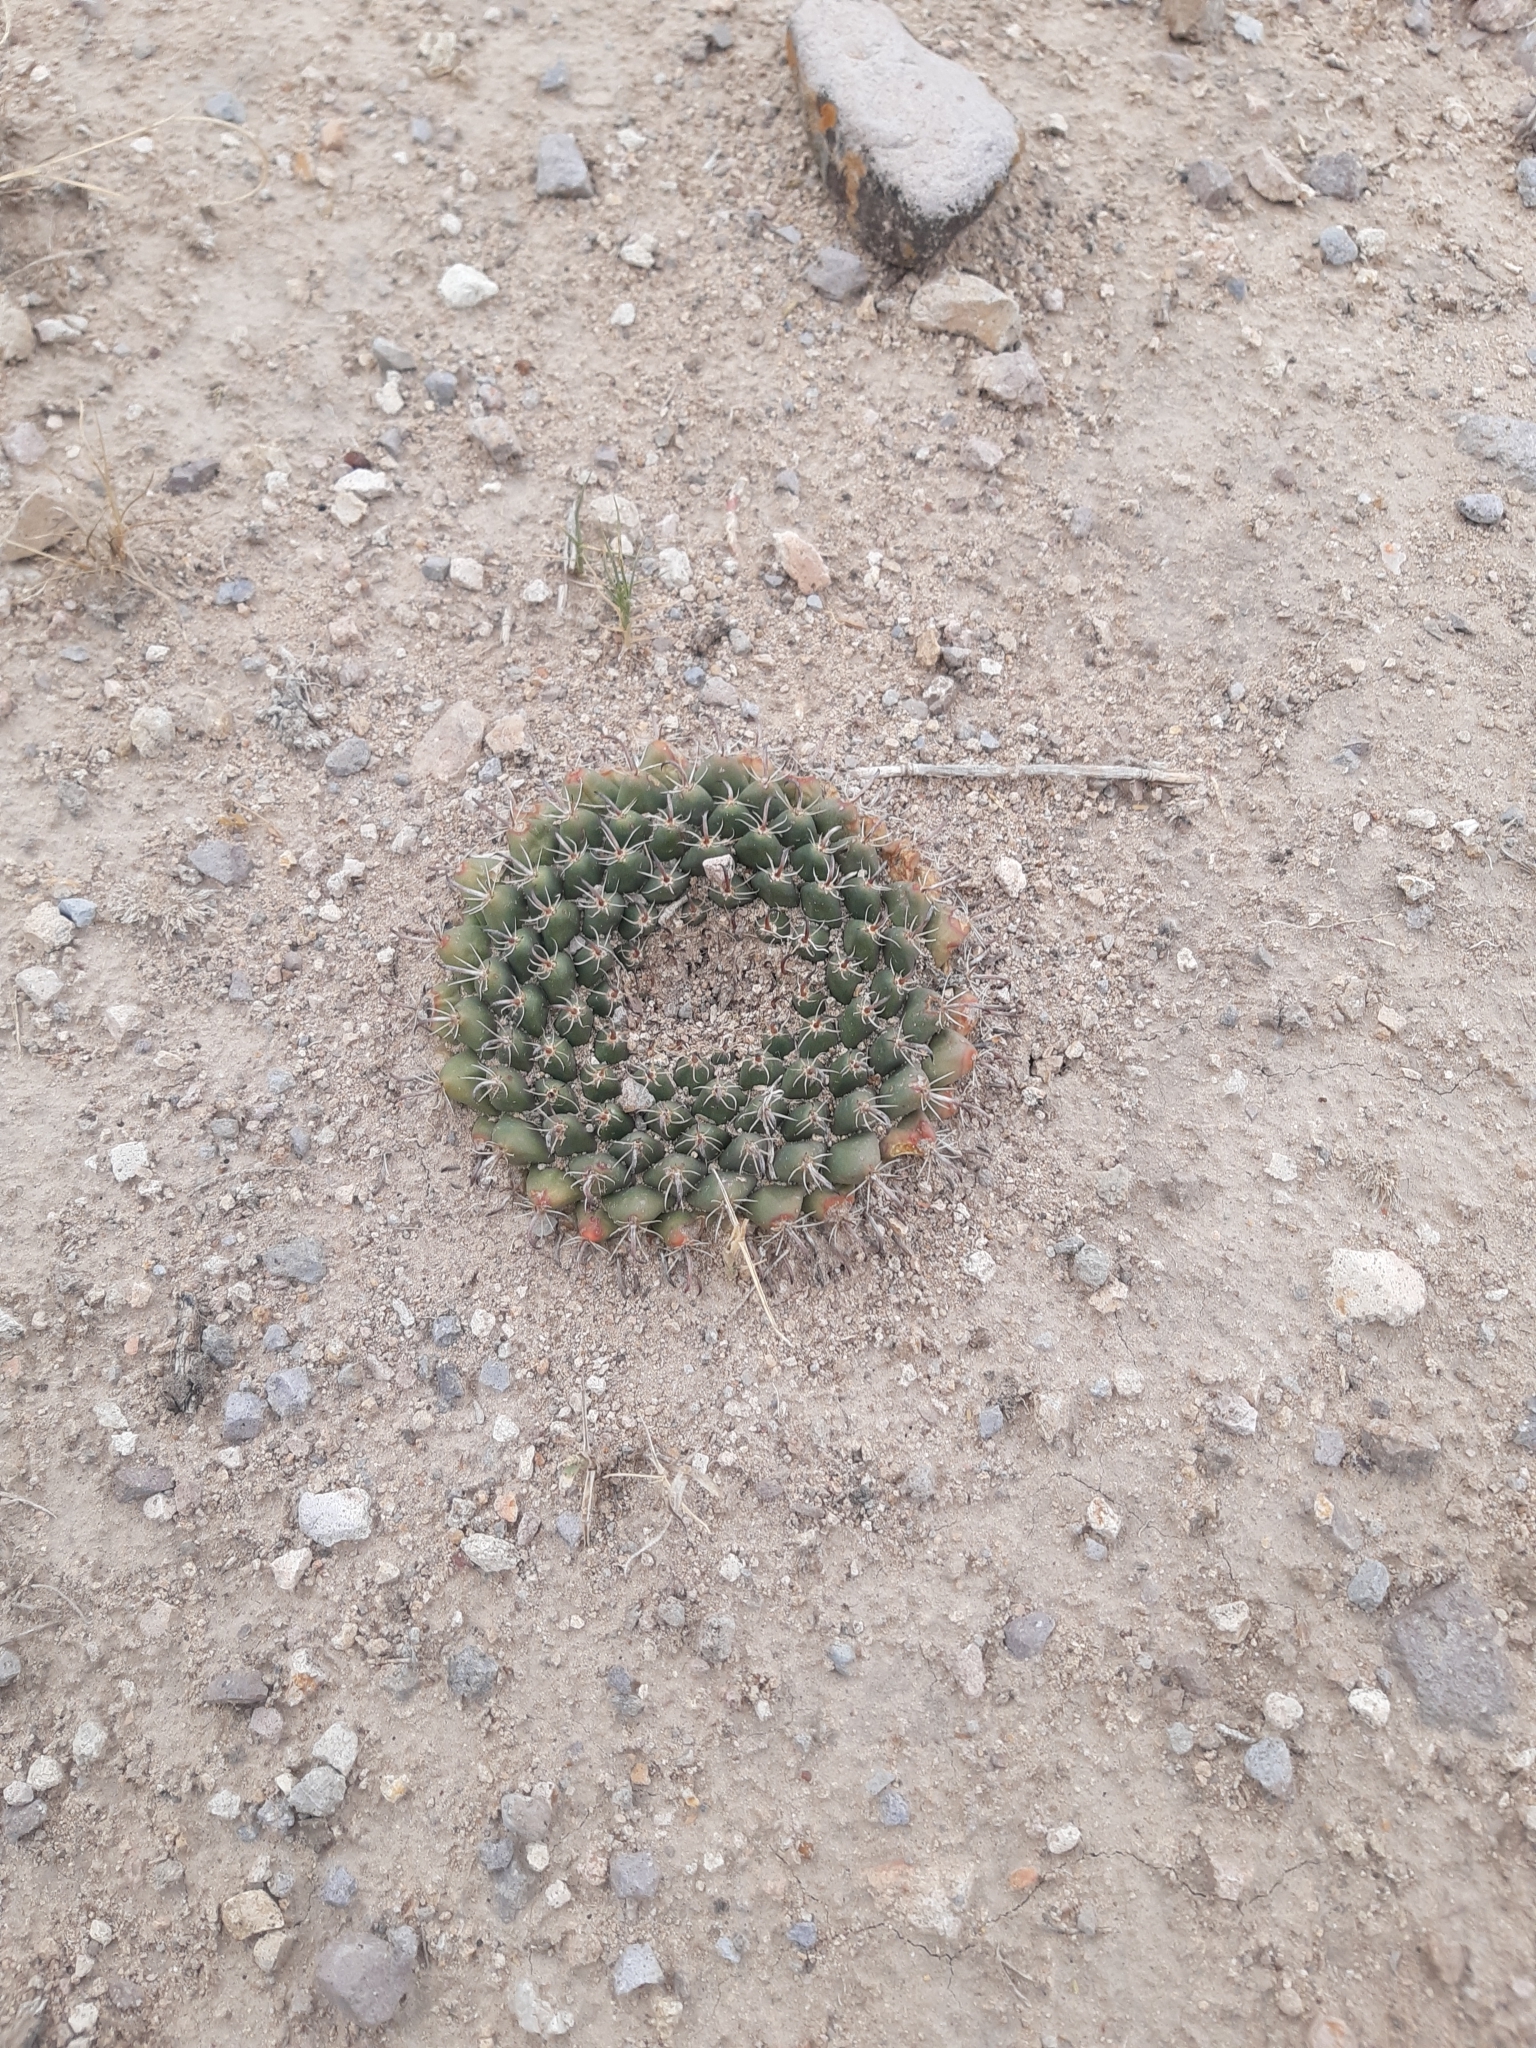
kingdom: Plantae
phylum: Tracheophyta
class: Magnoliopsida
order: Caryophyllales
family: Cactaceae
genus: Mammillaria
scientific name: Mammillaria uncinata
